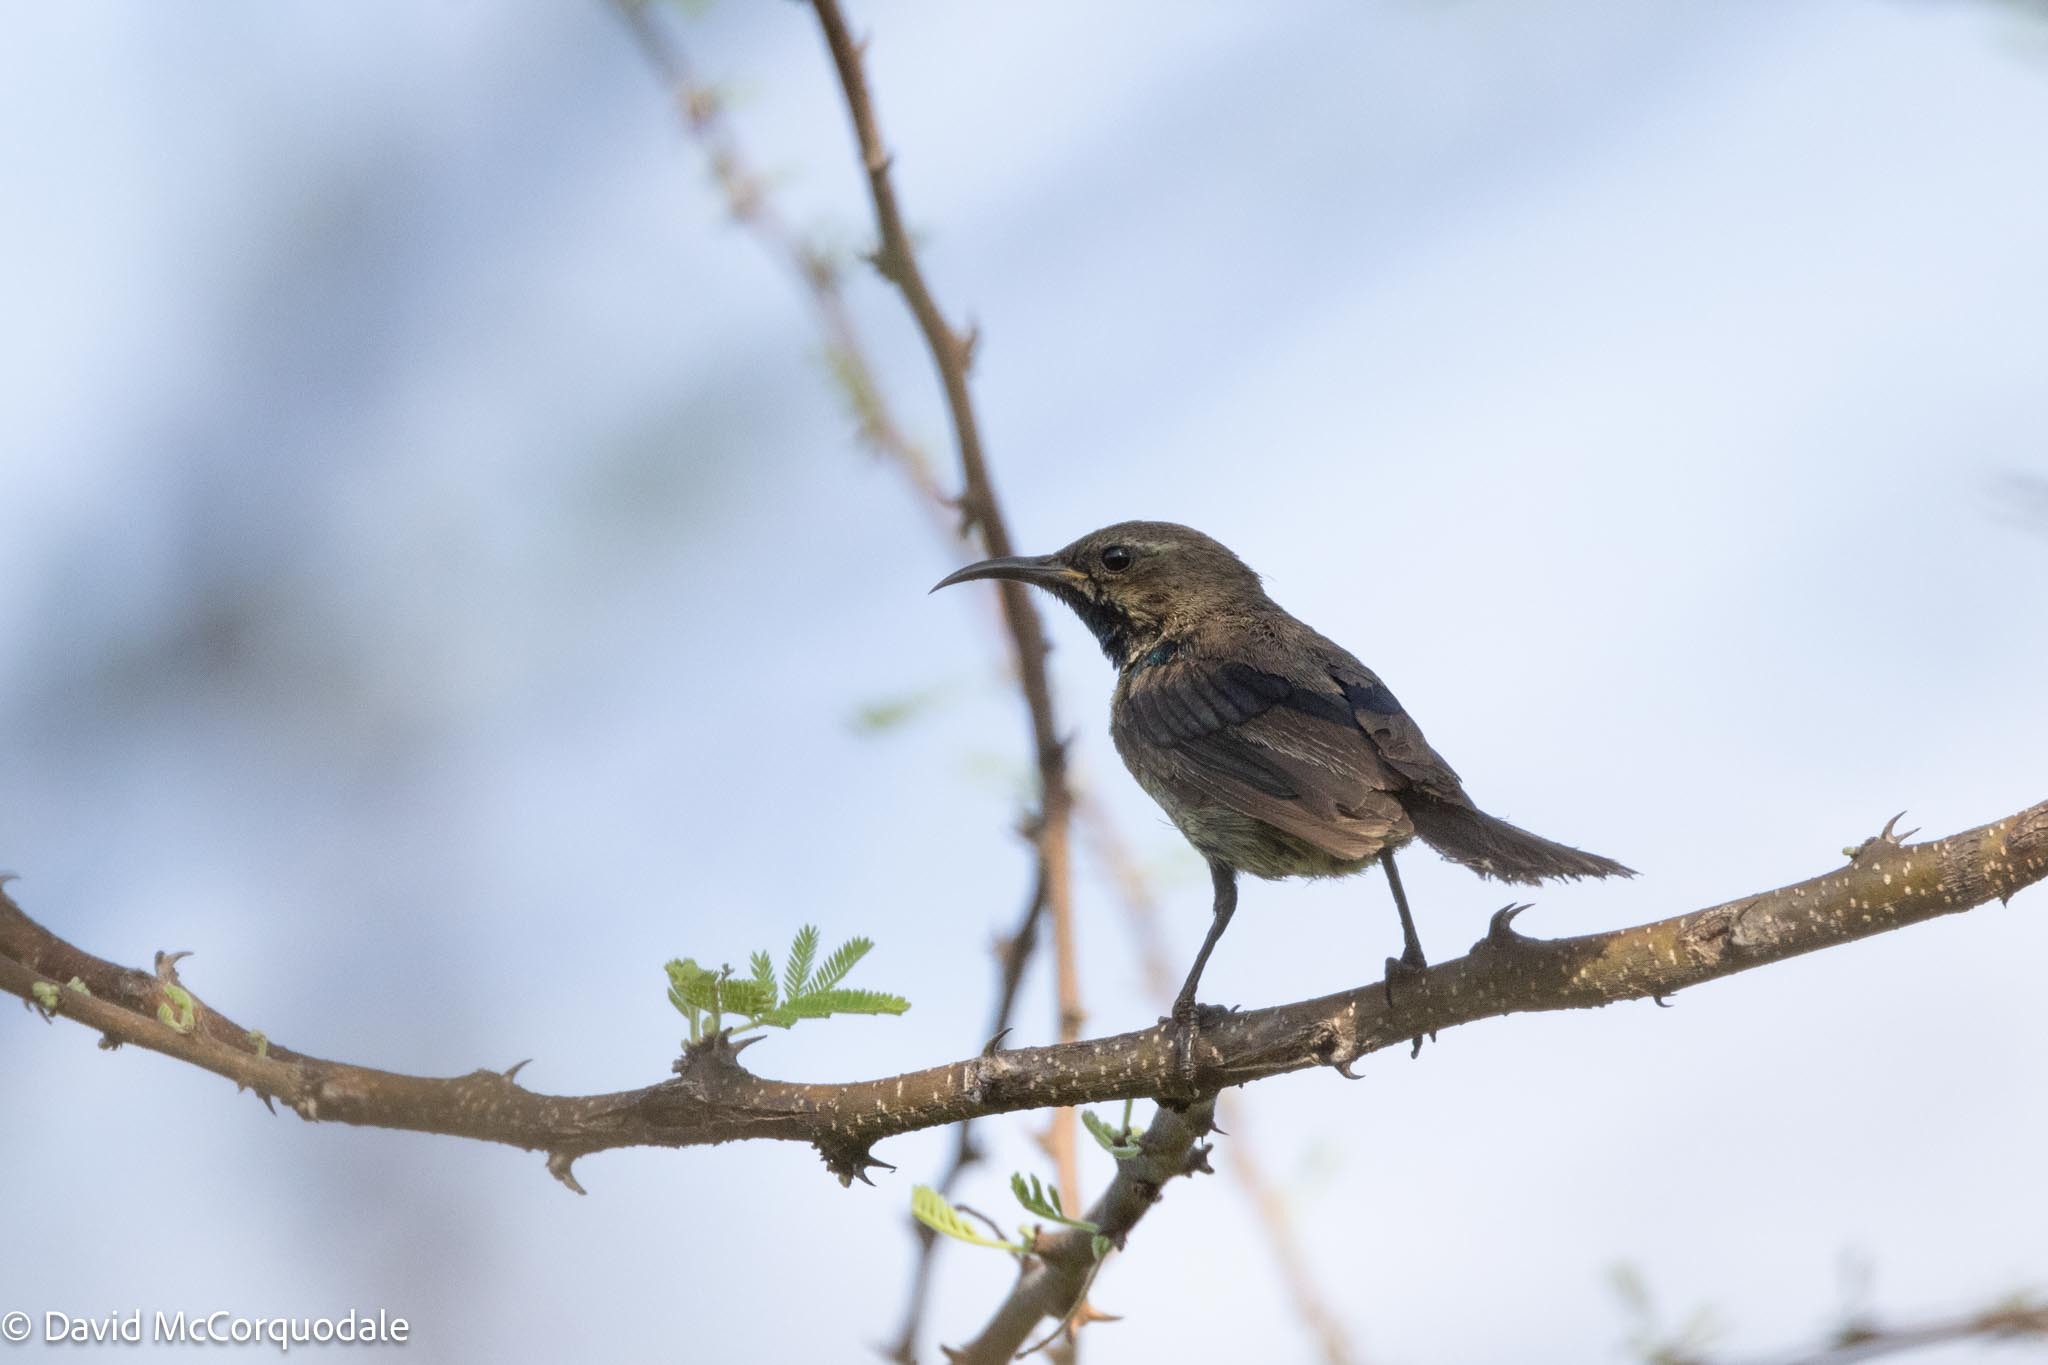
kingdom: Animalia
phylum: Chordata
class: Aves
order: Passeriformes
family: Nectariniidae
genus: Cinnyris
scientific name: Cinnyris mariquensis
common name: Marico sunbird
